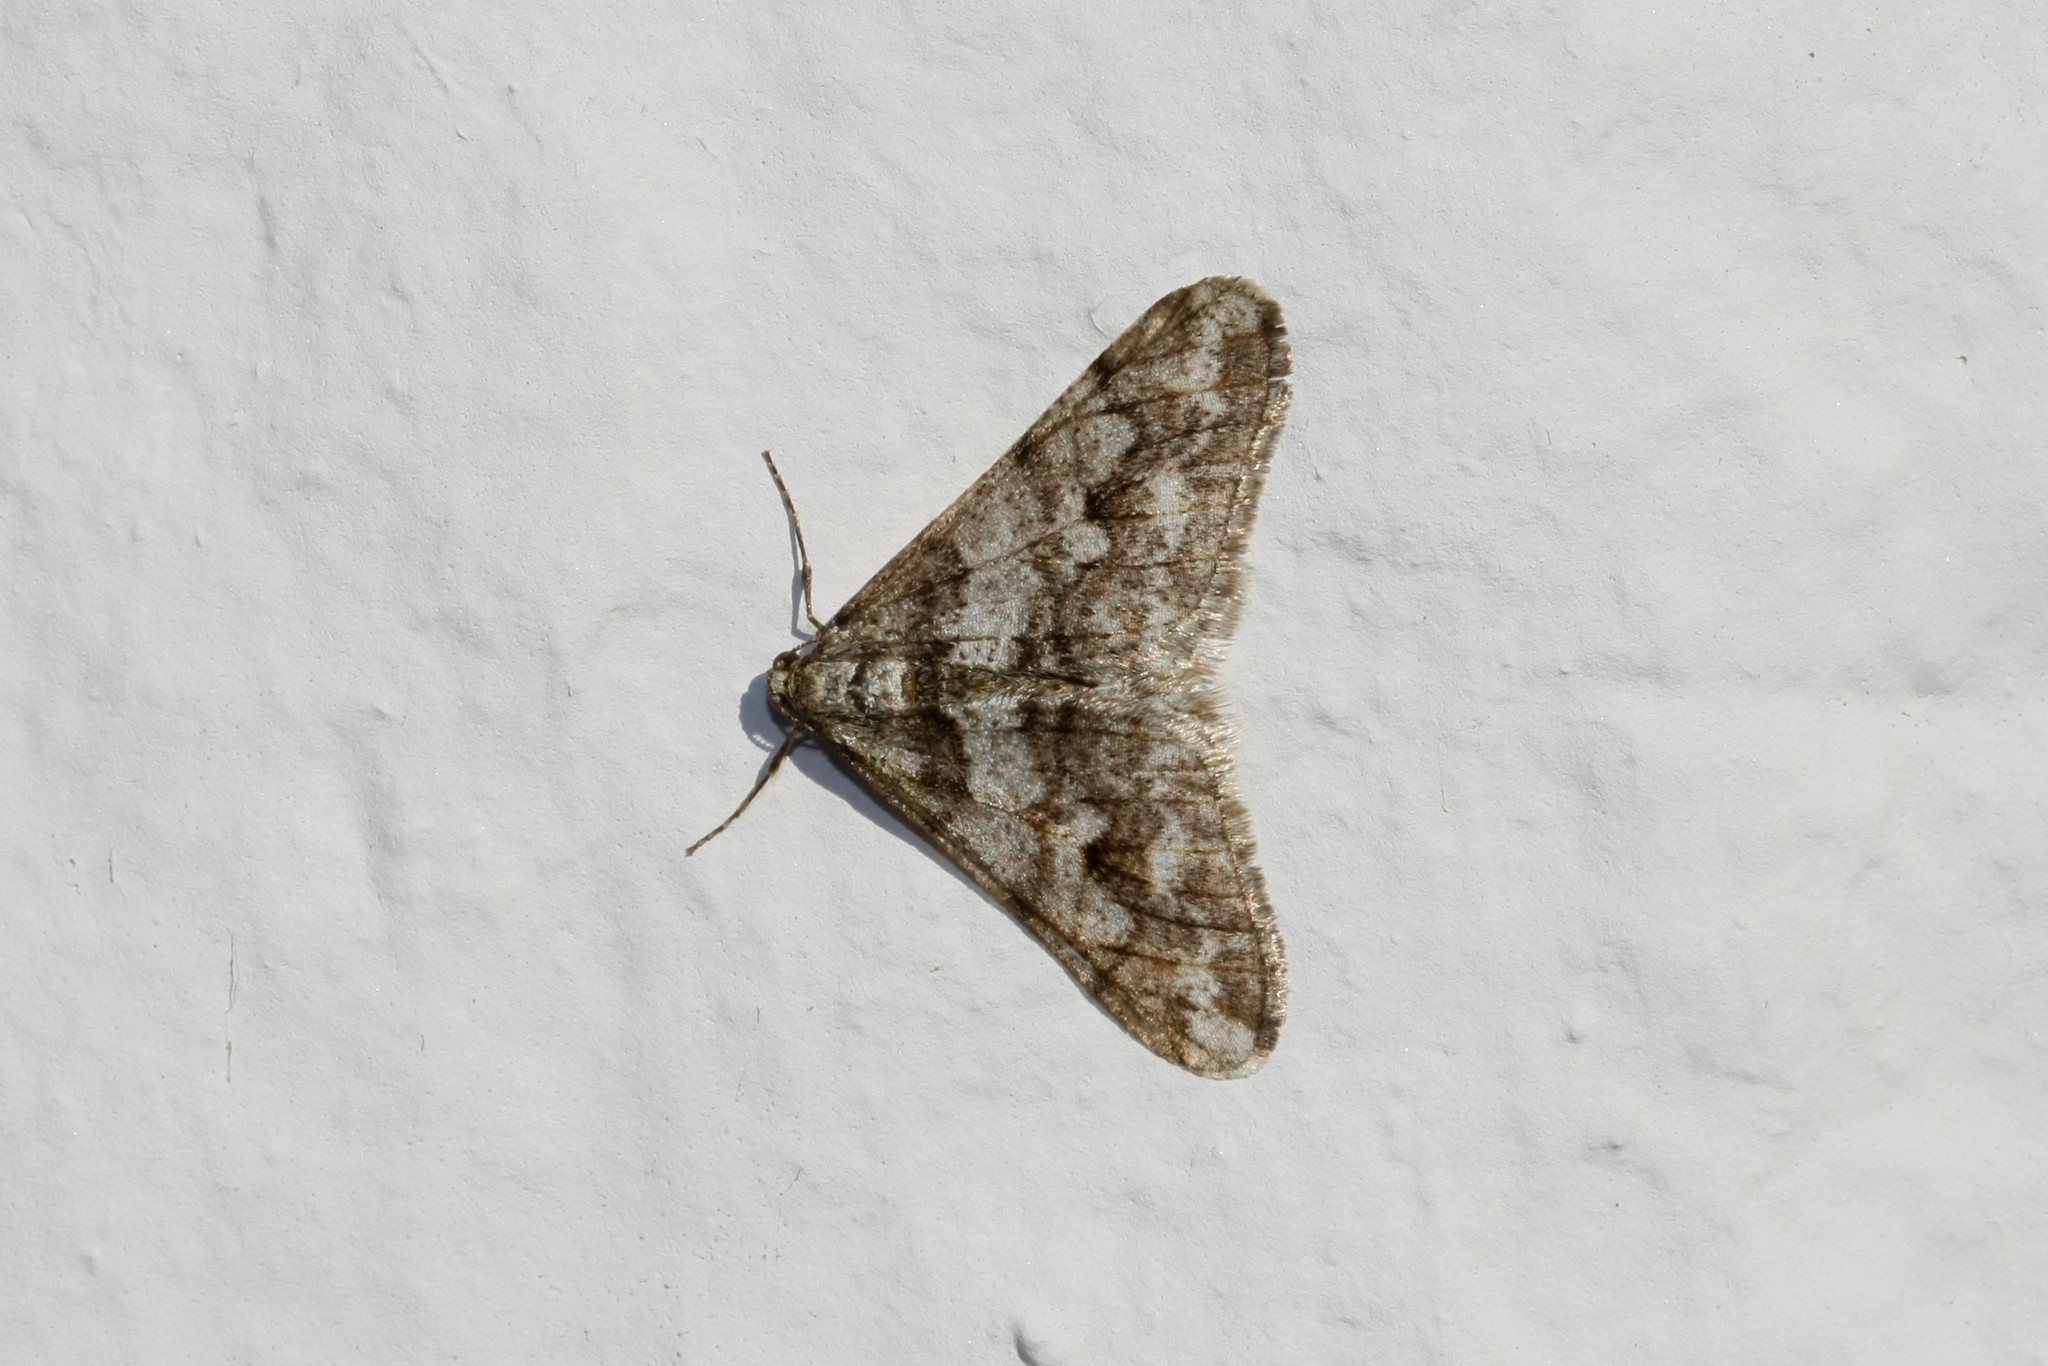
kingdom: Animalia
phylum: Arthropoda
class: Insecta
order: Lepidoptera
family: Geometridae
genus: Agriopis
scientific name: Agriopis leucophaearia
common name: Spring usher
